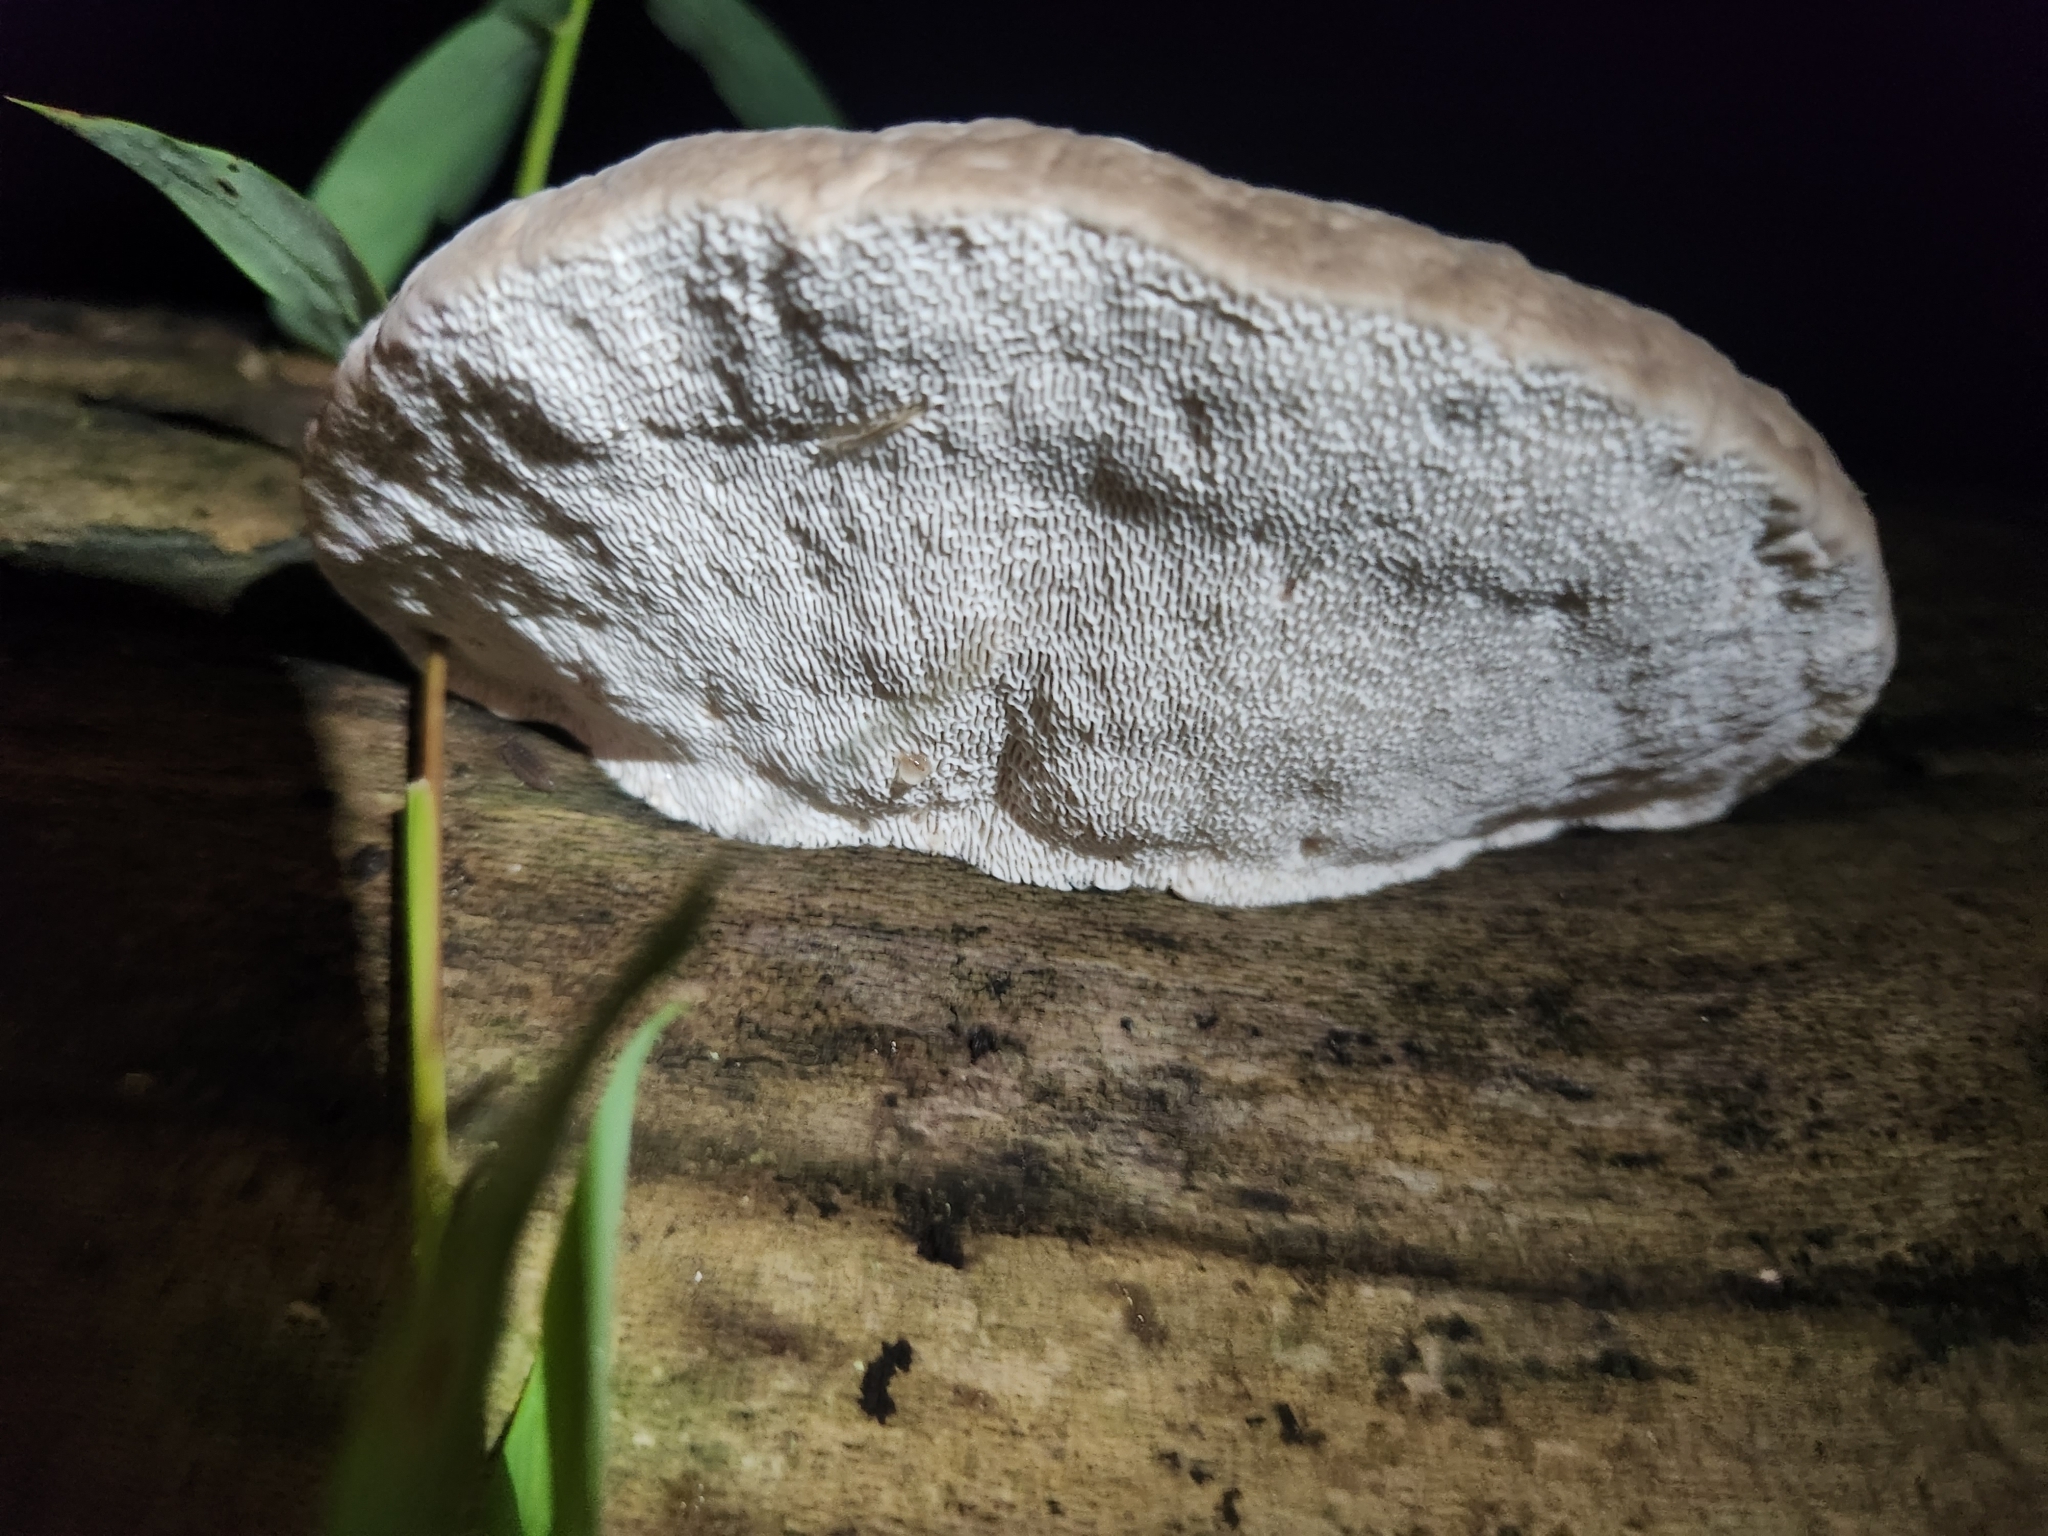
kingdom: Fungi
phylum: Basidiomycota
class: Agaricomycetes
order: Polyporales
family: Polyporaceae
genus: Trametes
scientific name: Trametes gibbosa
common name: Lumpy bracket
